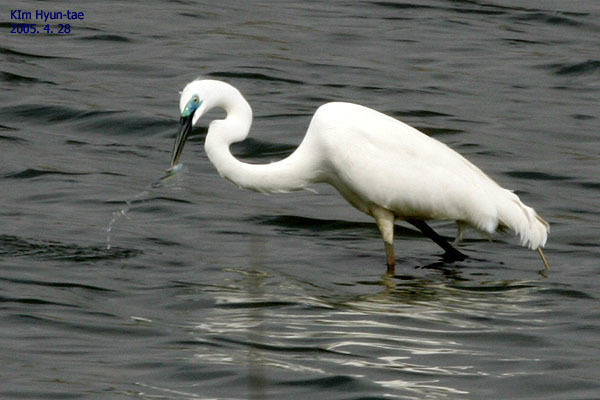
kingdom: Animalia
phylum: Chordata
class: Aves
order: Pelecaniformes
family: Ardeidae
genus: Ardea
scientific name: Ardea alba
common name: Great egret
